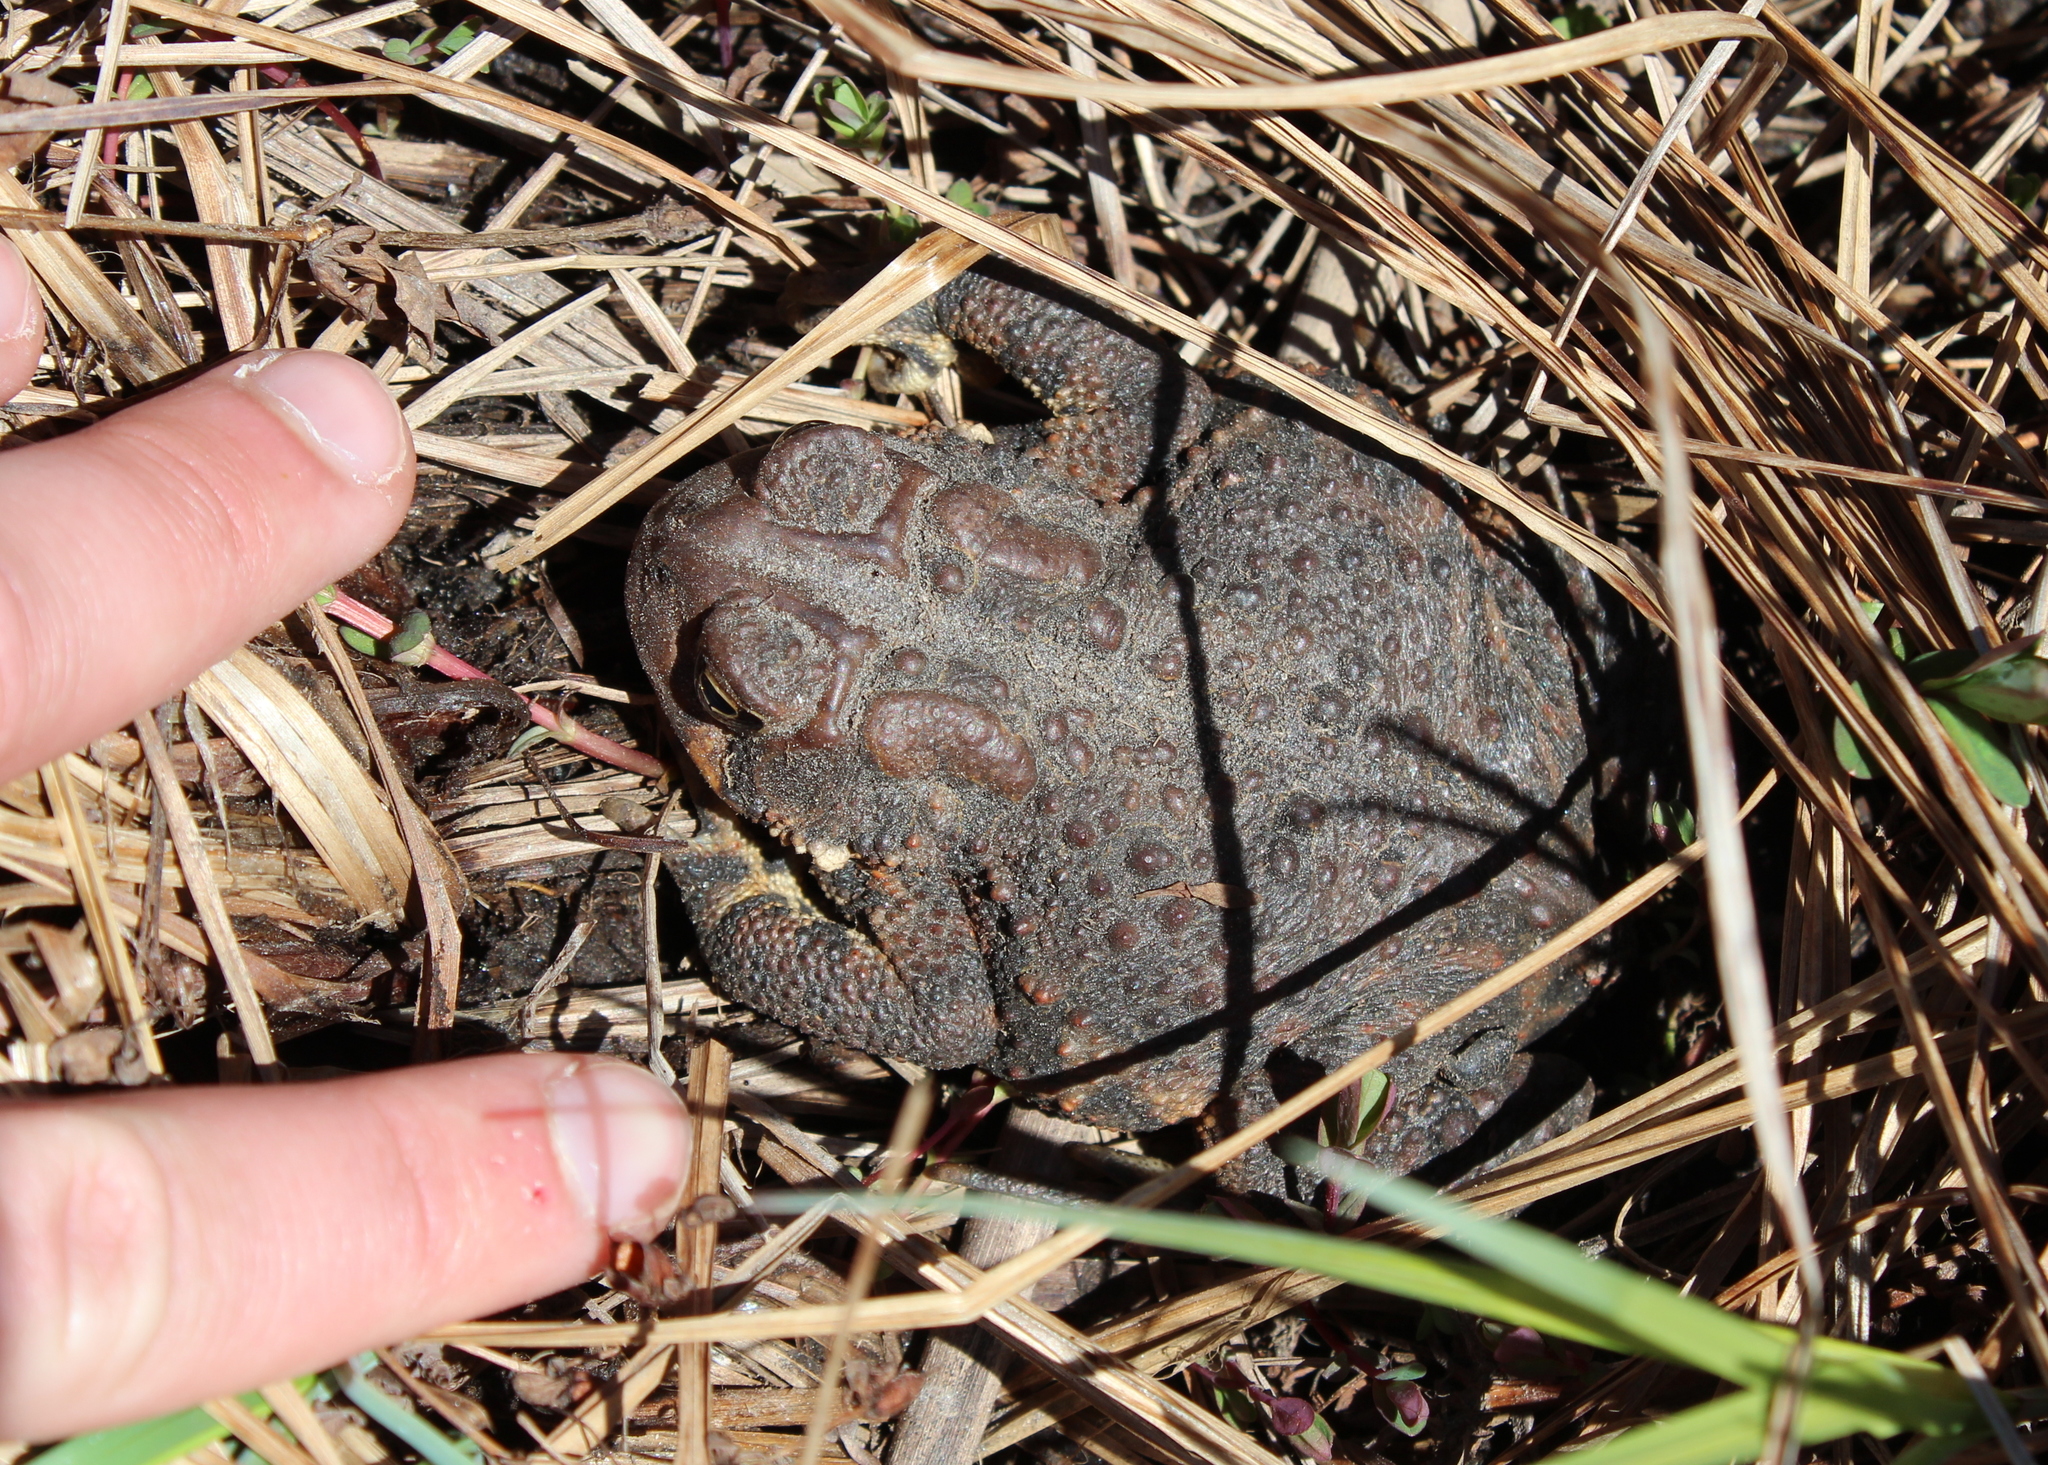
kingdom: Animalia
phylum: Chordata
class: Amphibia
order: Anura
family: Bufonidae
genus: Anaxyrus
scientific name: Anaxyrus americanus
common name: American toad
